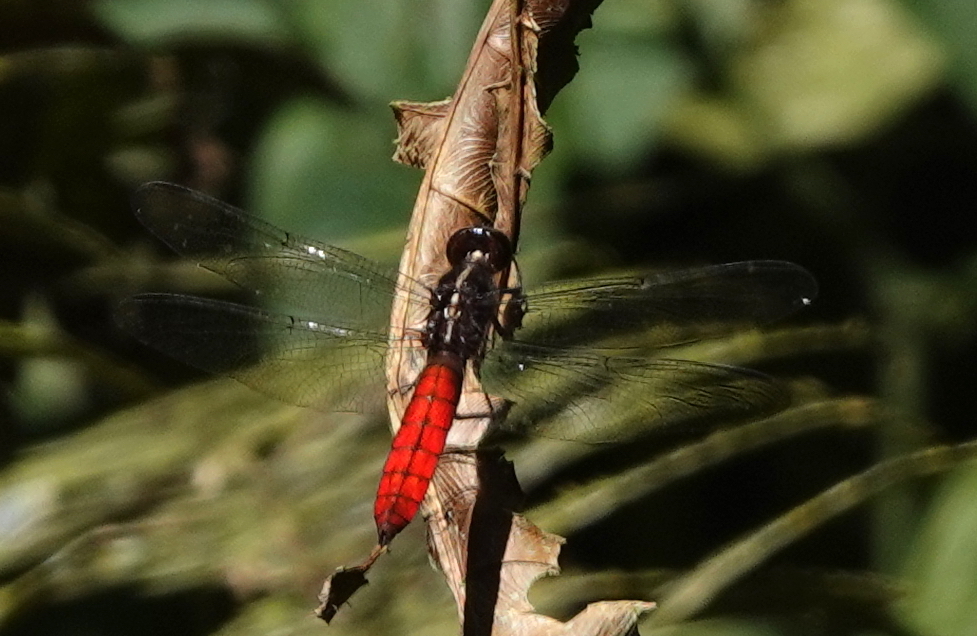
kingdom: Animalia
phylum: Arthropoda
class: Insecta
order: Odonata
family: Libellulidae
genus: Libellula
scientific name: Libellula herculea
